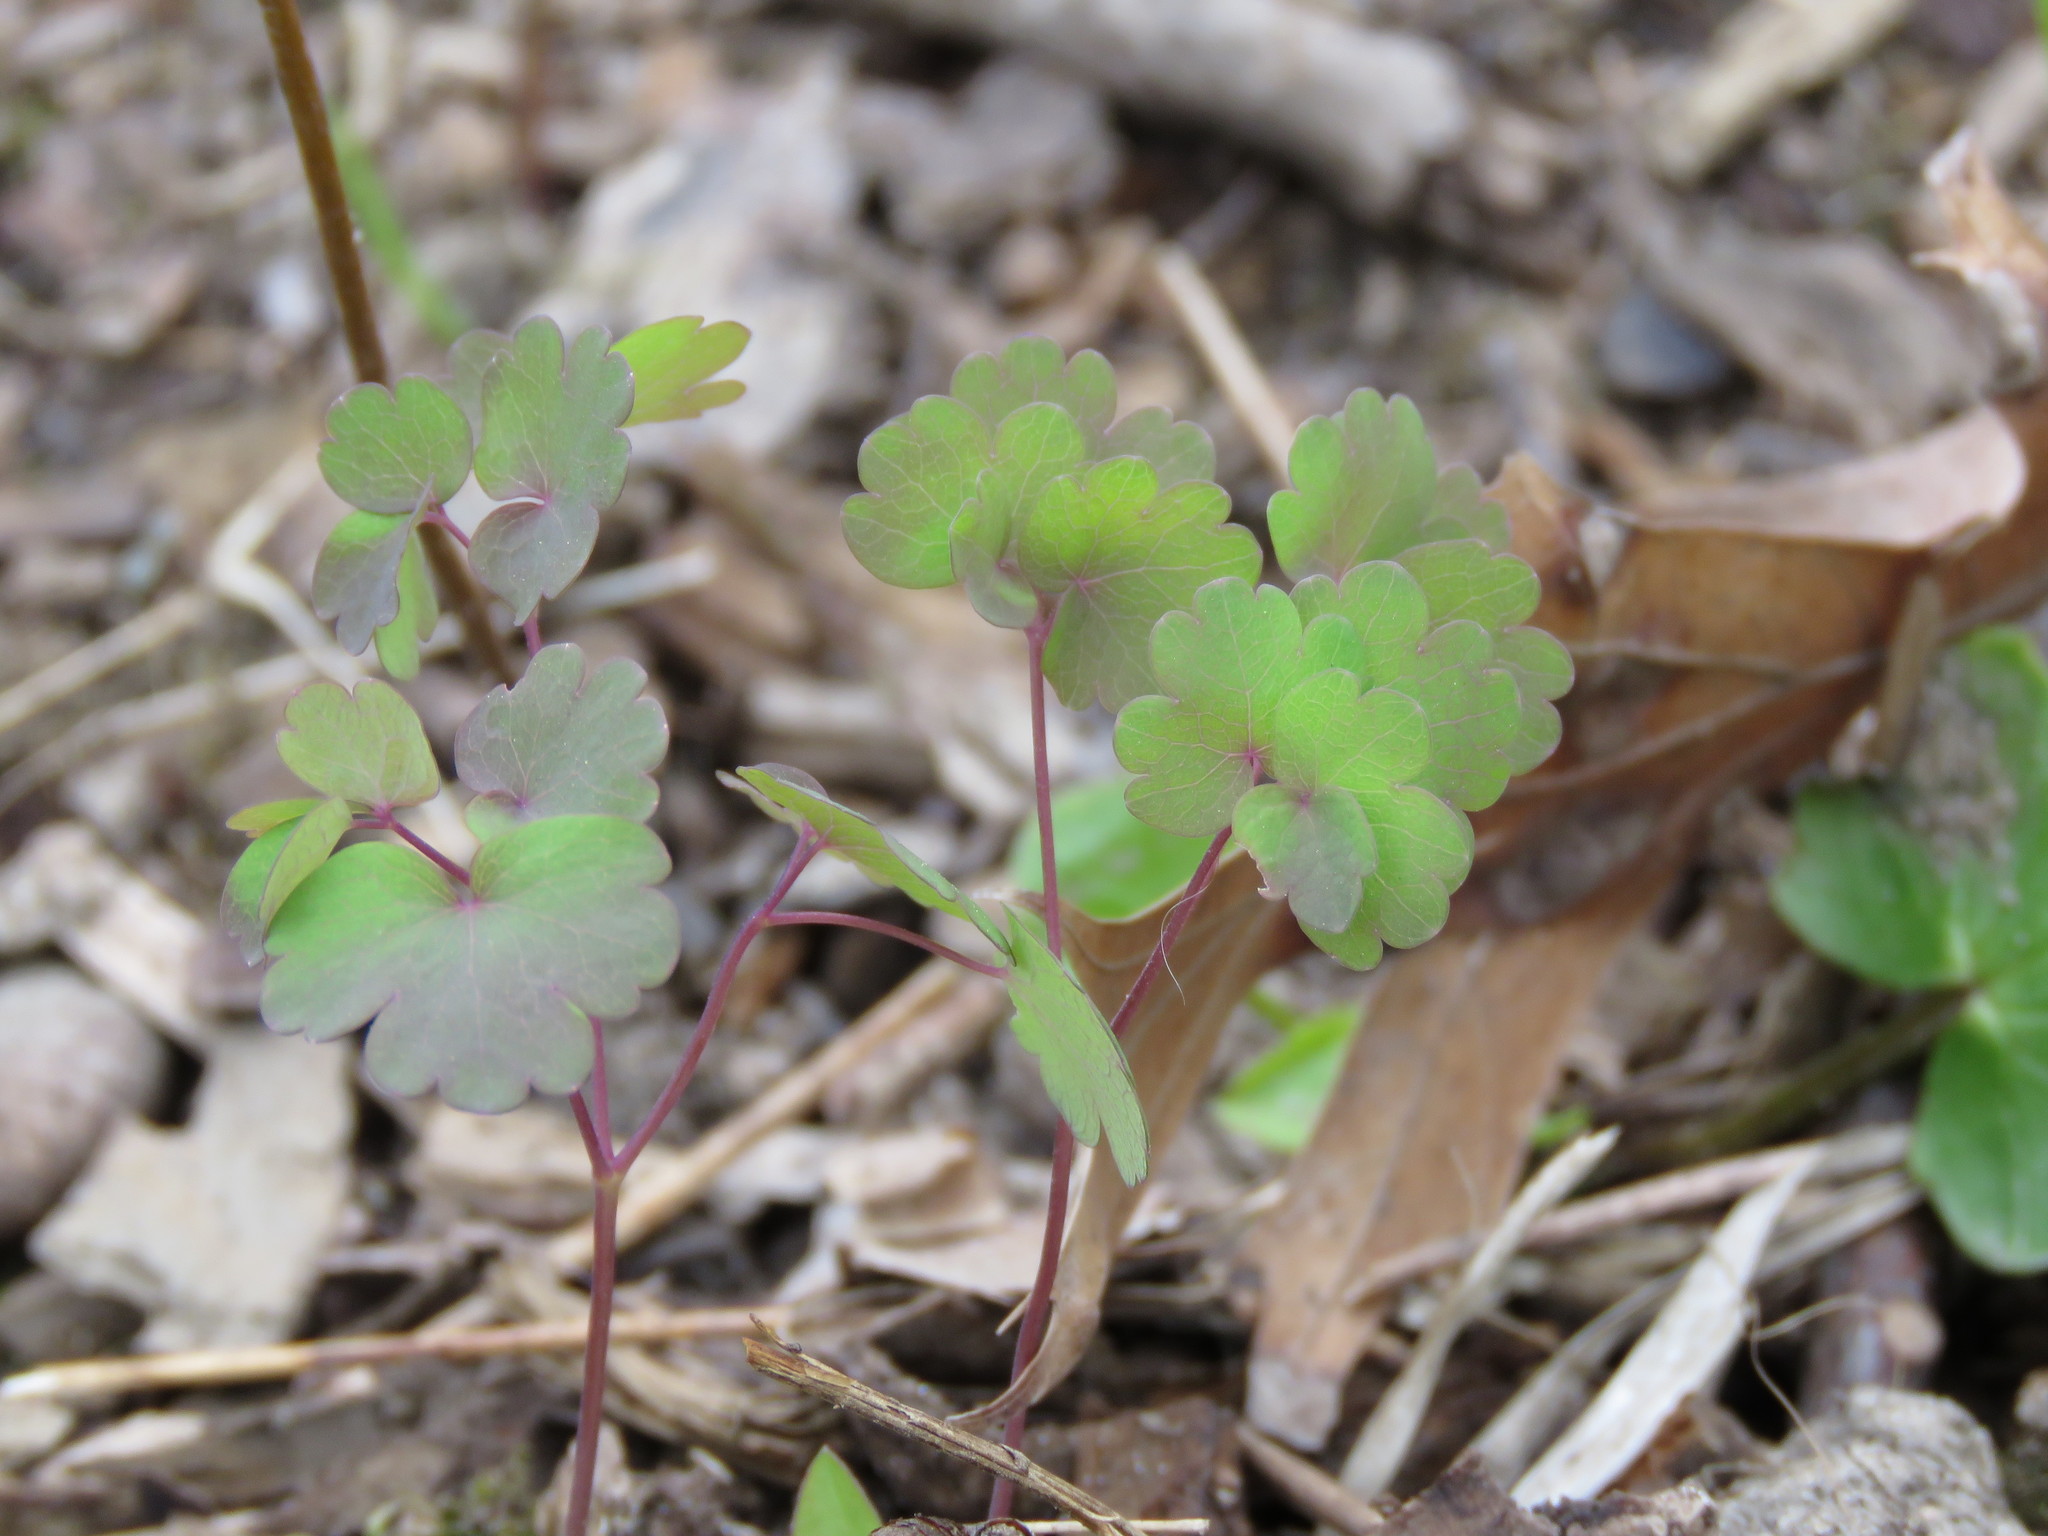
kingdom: Plantae
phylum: Tracheophyta
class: Magnoliopsida
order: Ranunculales
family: Ranunculaceae
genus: Thalictrum
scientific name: Thalictrum dioicum
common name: Early meadow-rue
